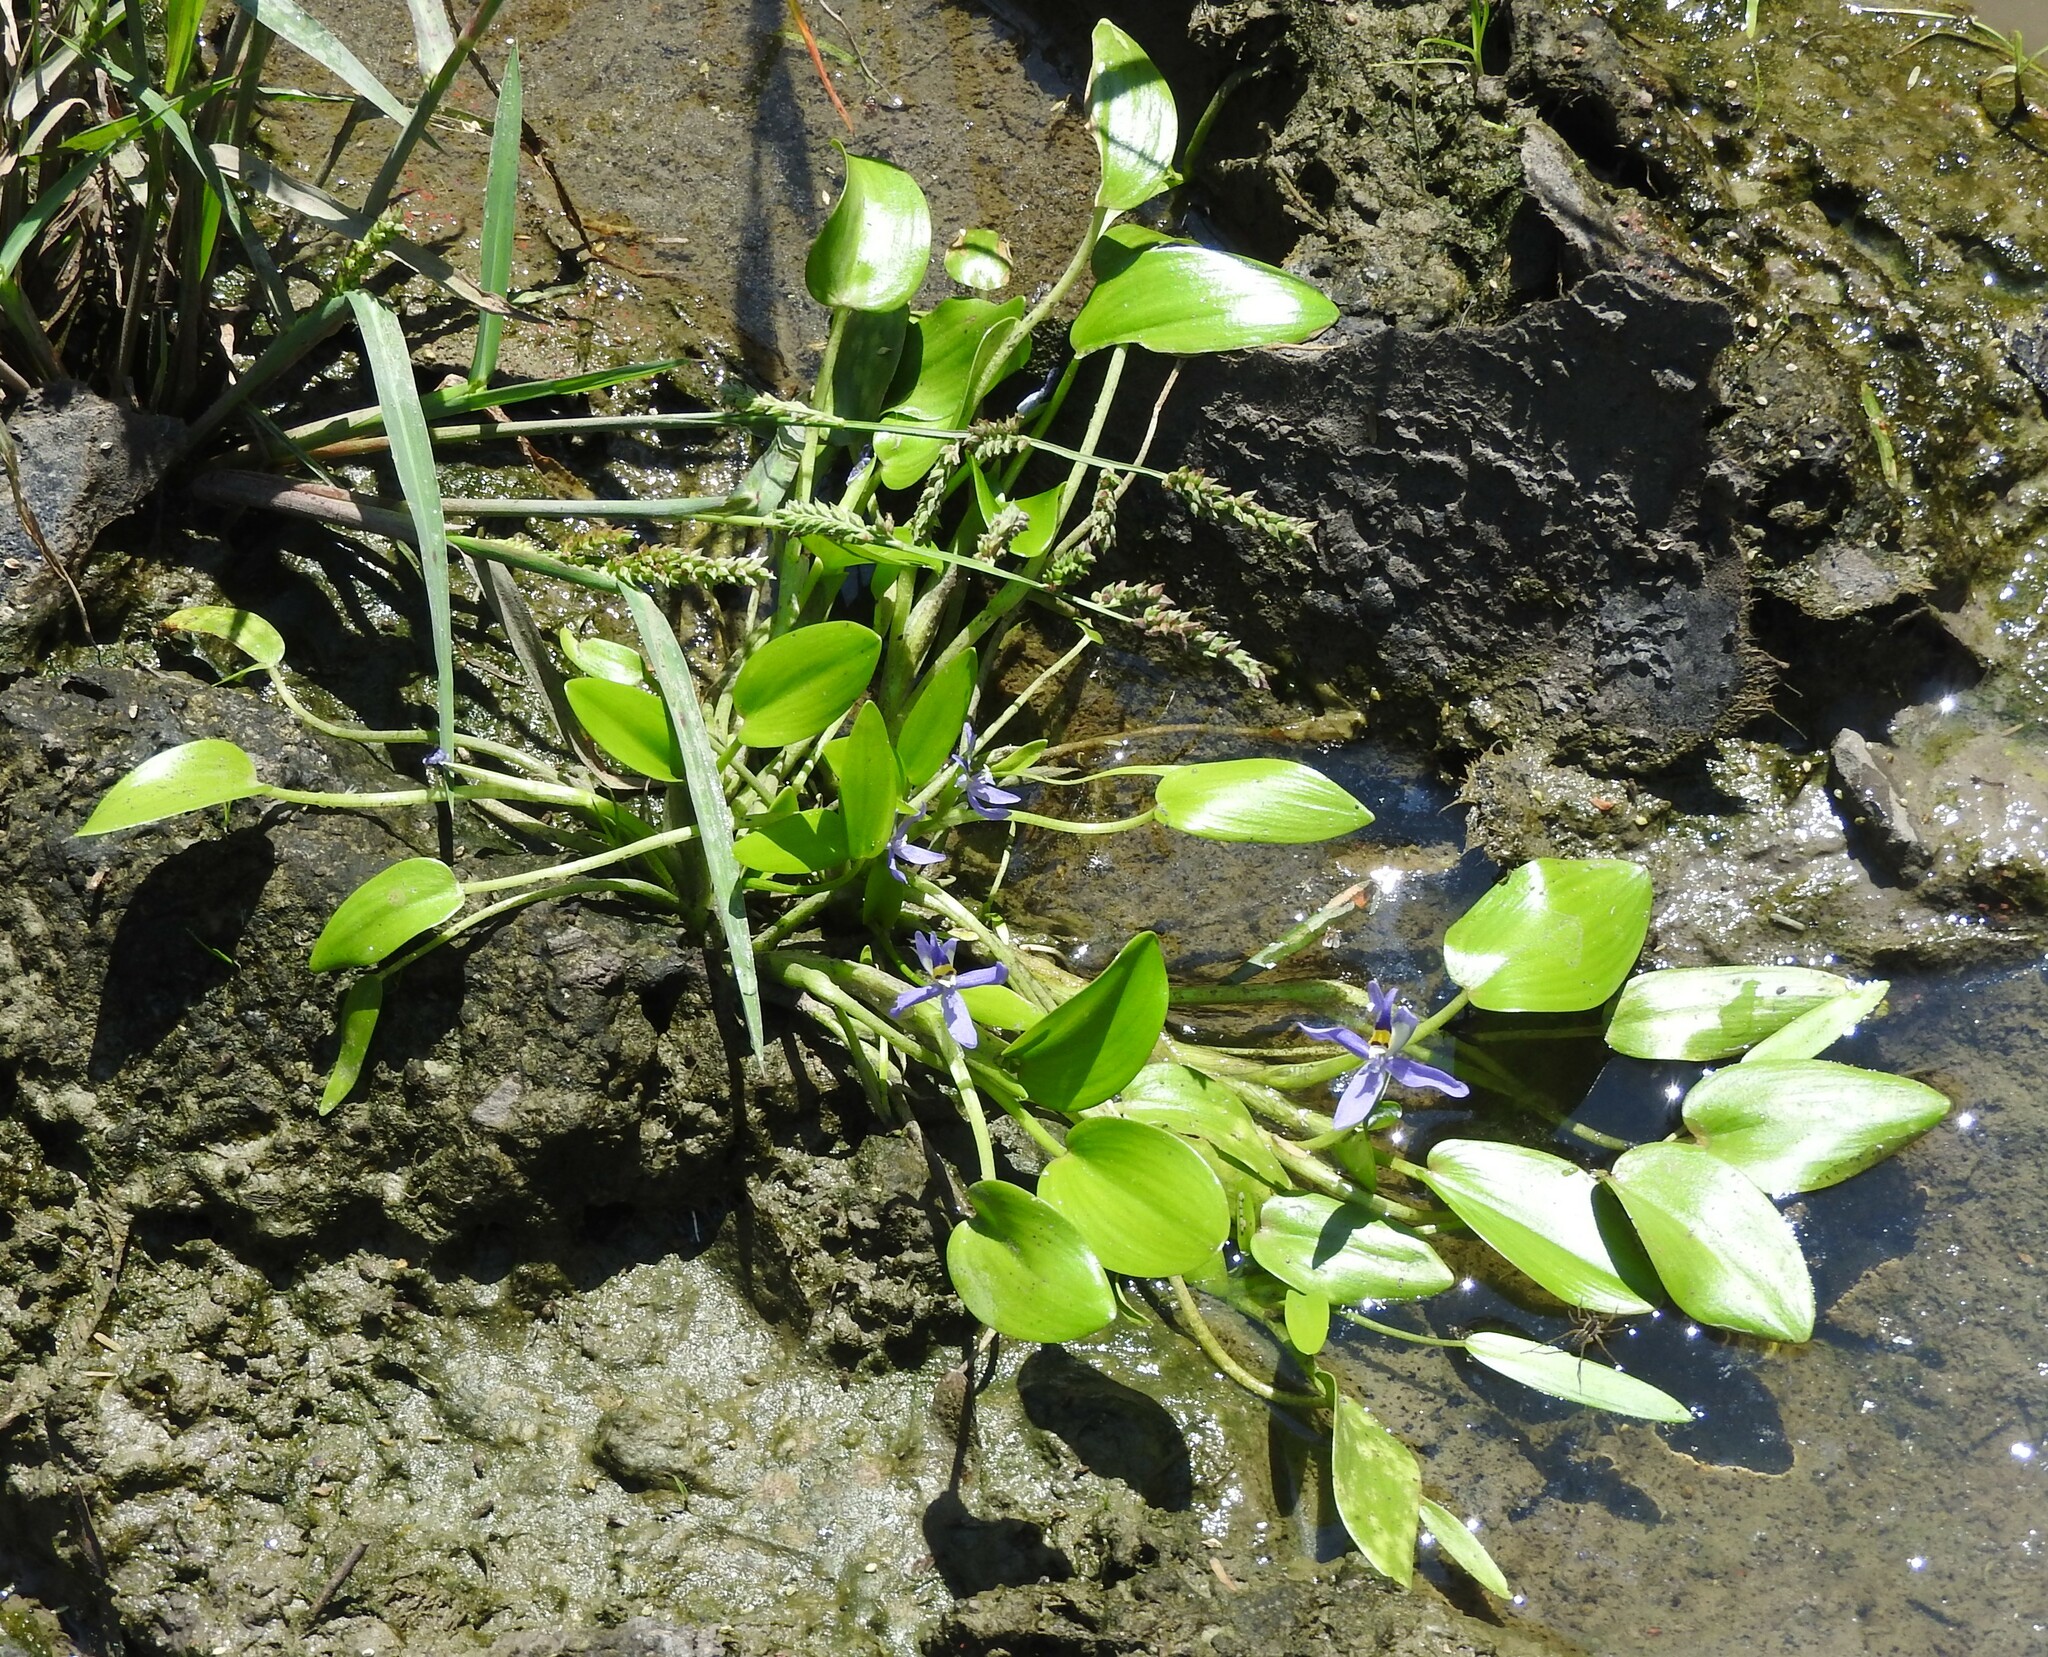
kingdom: Plantae
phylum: Tracheophyta
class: Liliopsida
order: Commelinales
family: Pontederiaceae
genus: Heteranthera
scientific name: Heteranthera rotundifolia
